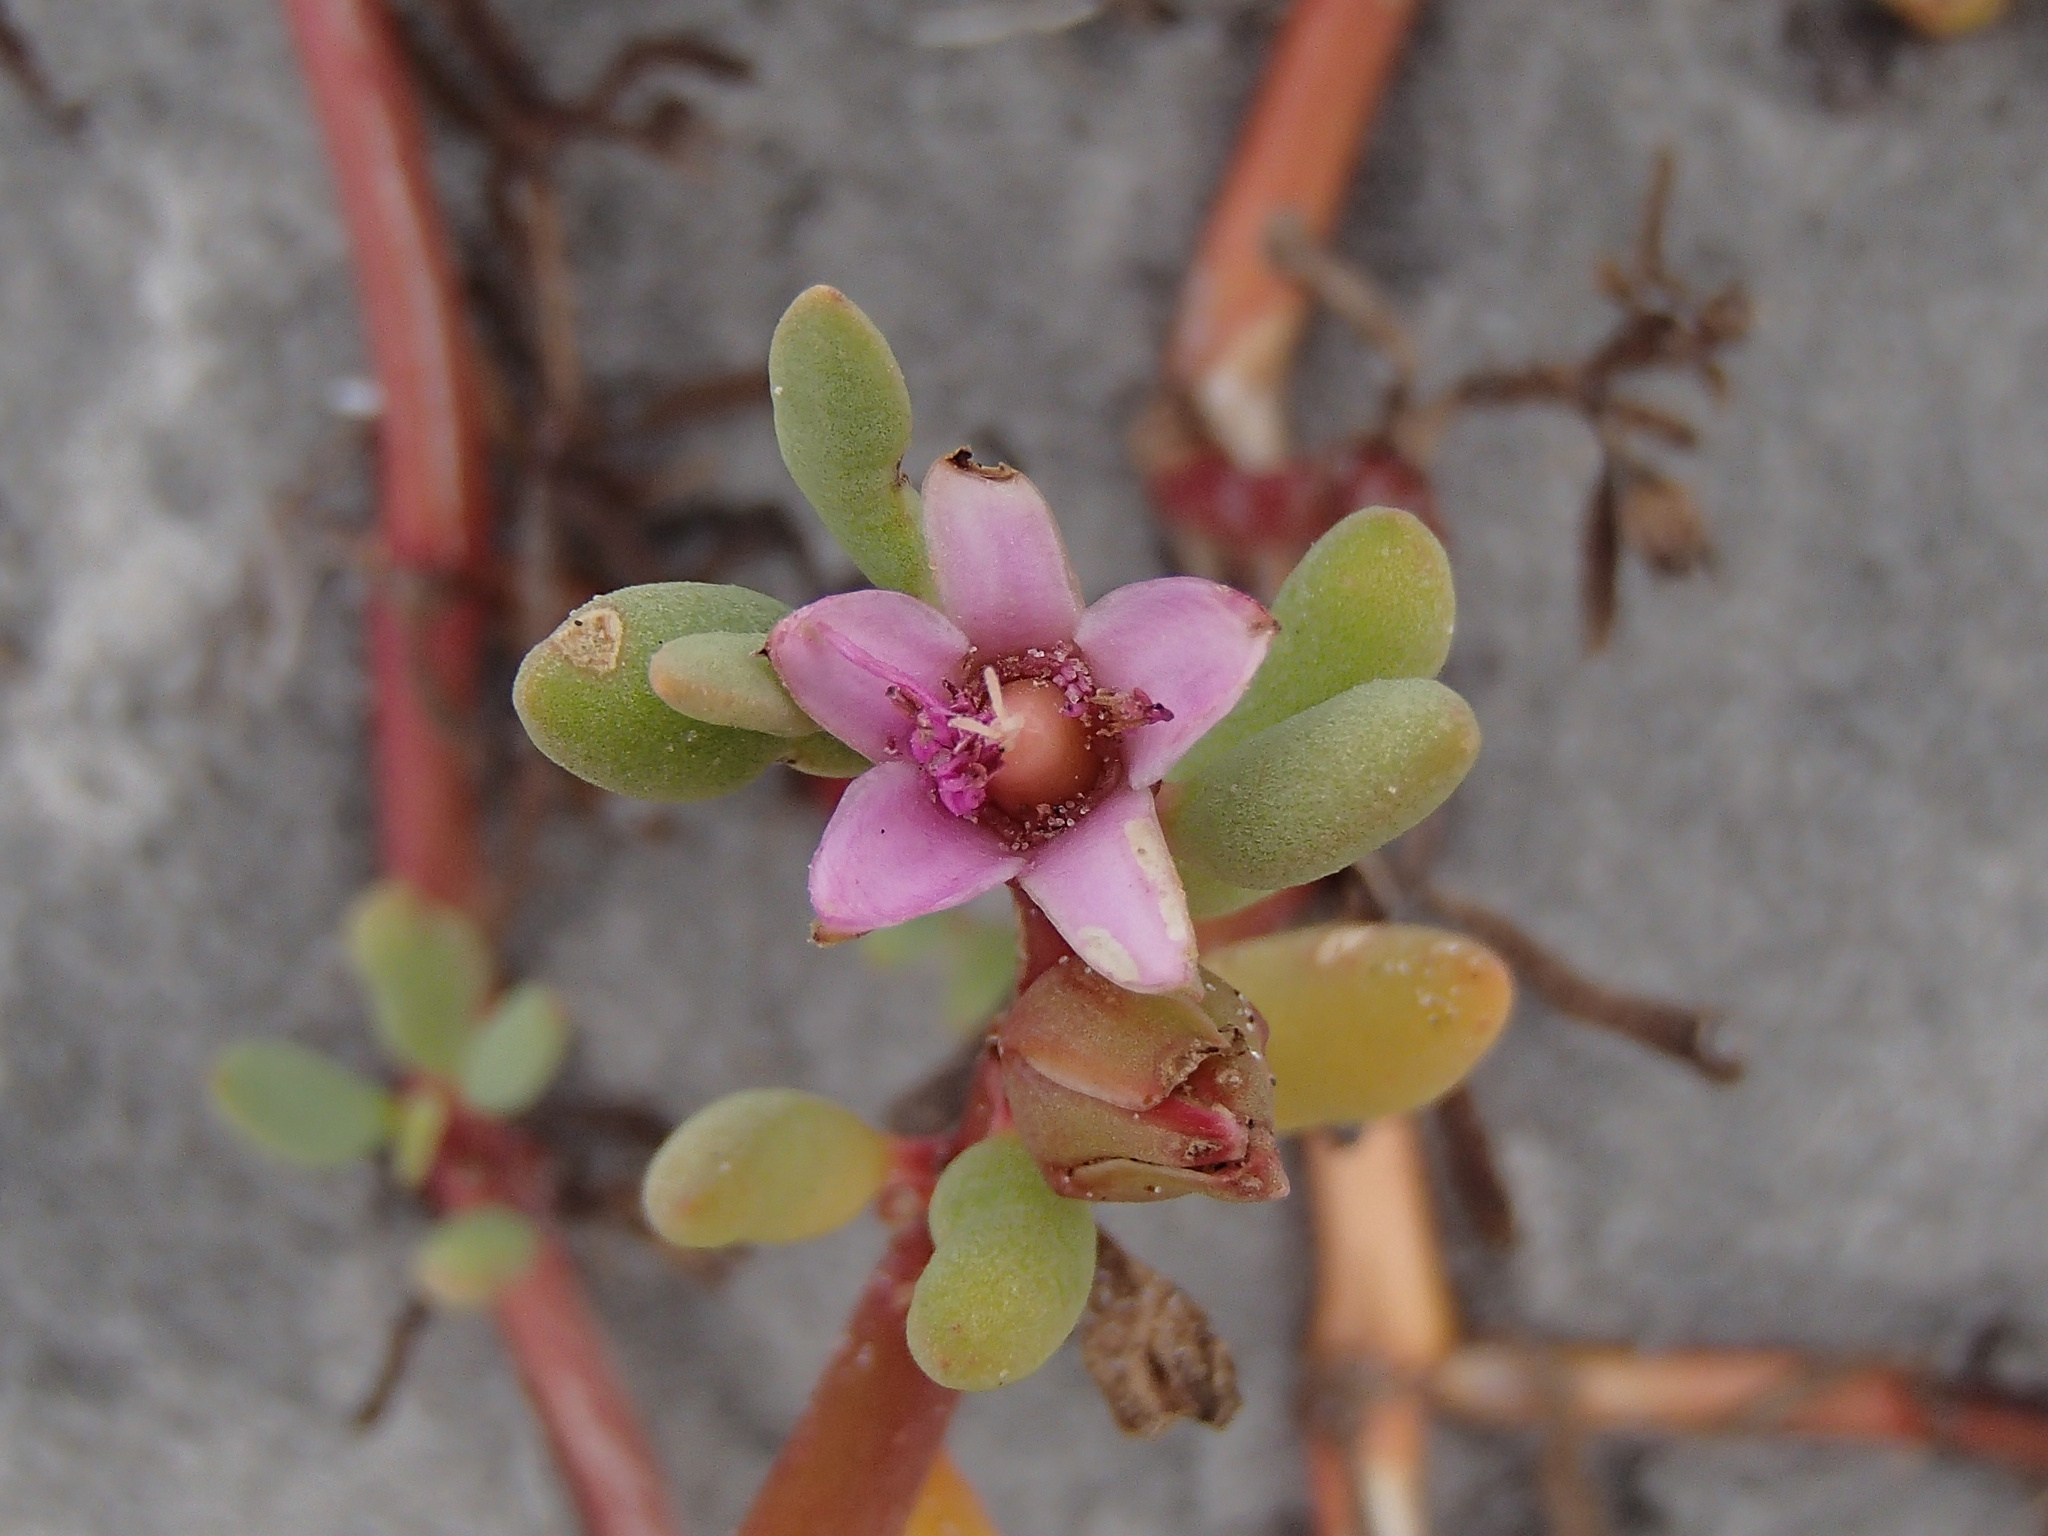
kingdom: Plantae
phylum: Tracheophyta
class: Magnoliopsida
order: Caryophyllales
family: Aizoaceae
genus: Sesuvium
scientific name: Sesuvium portulacastrum
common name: Sea-purslane
